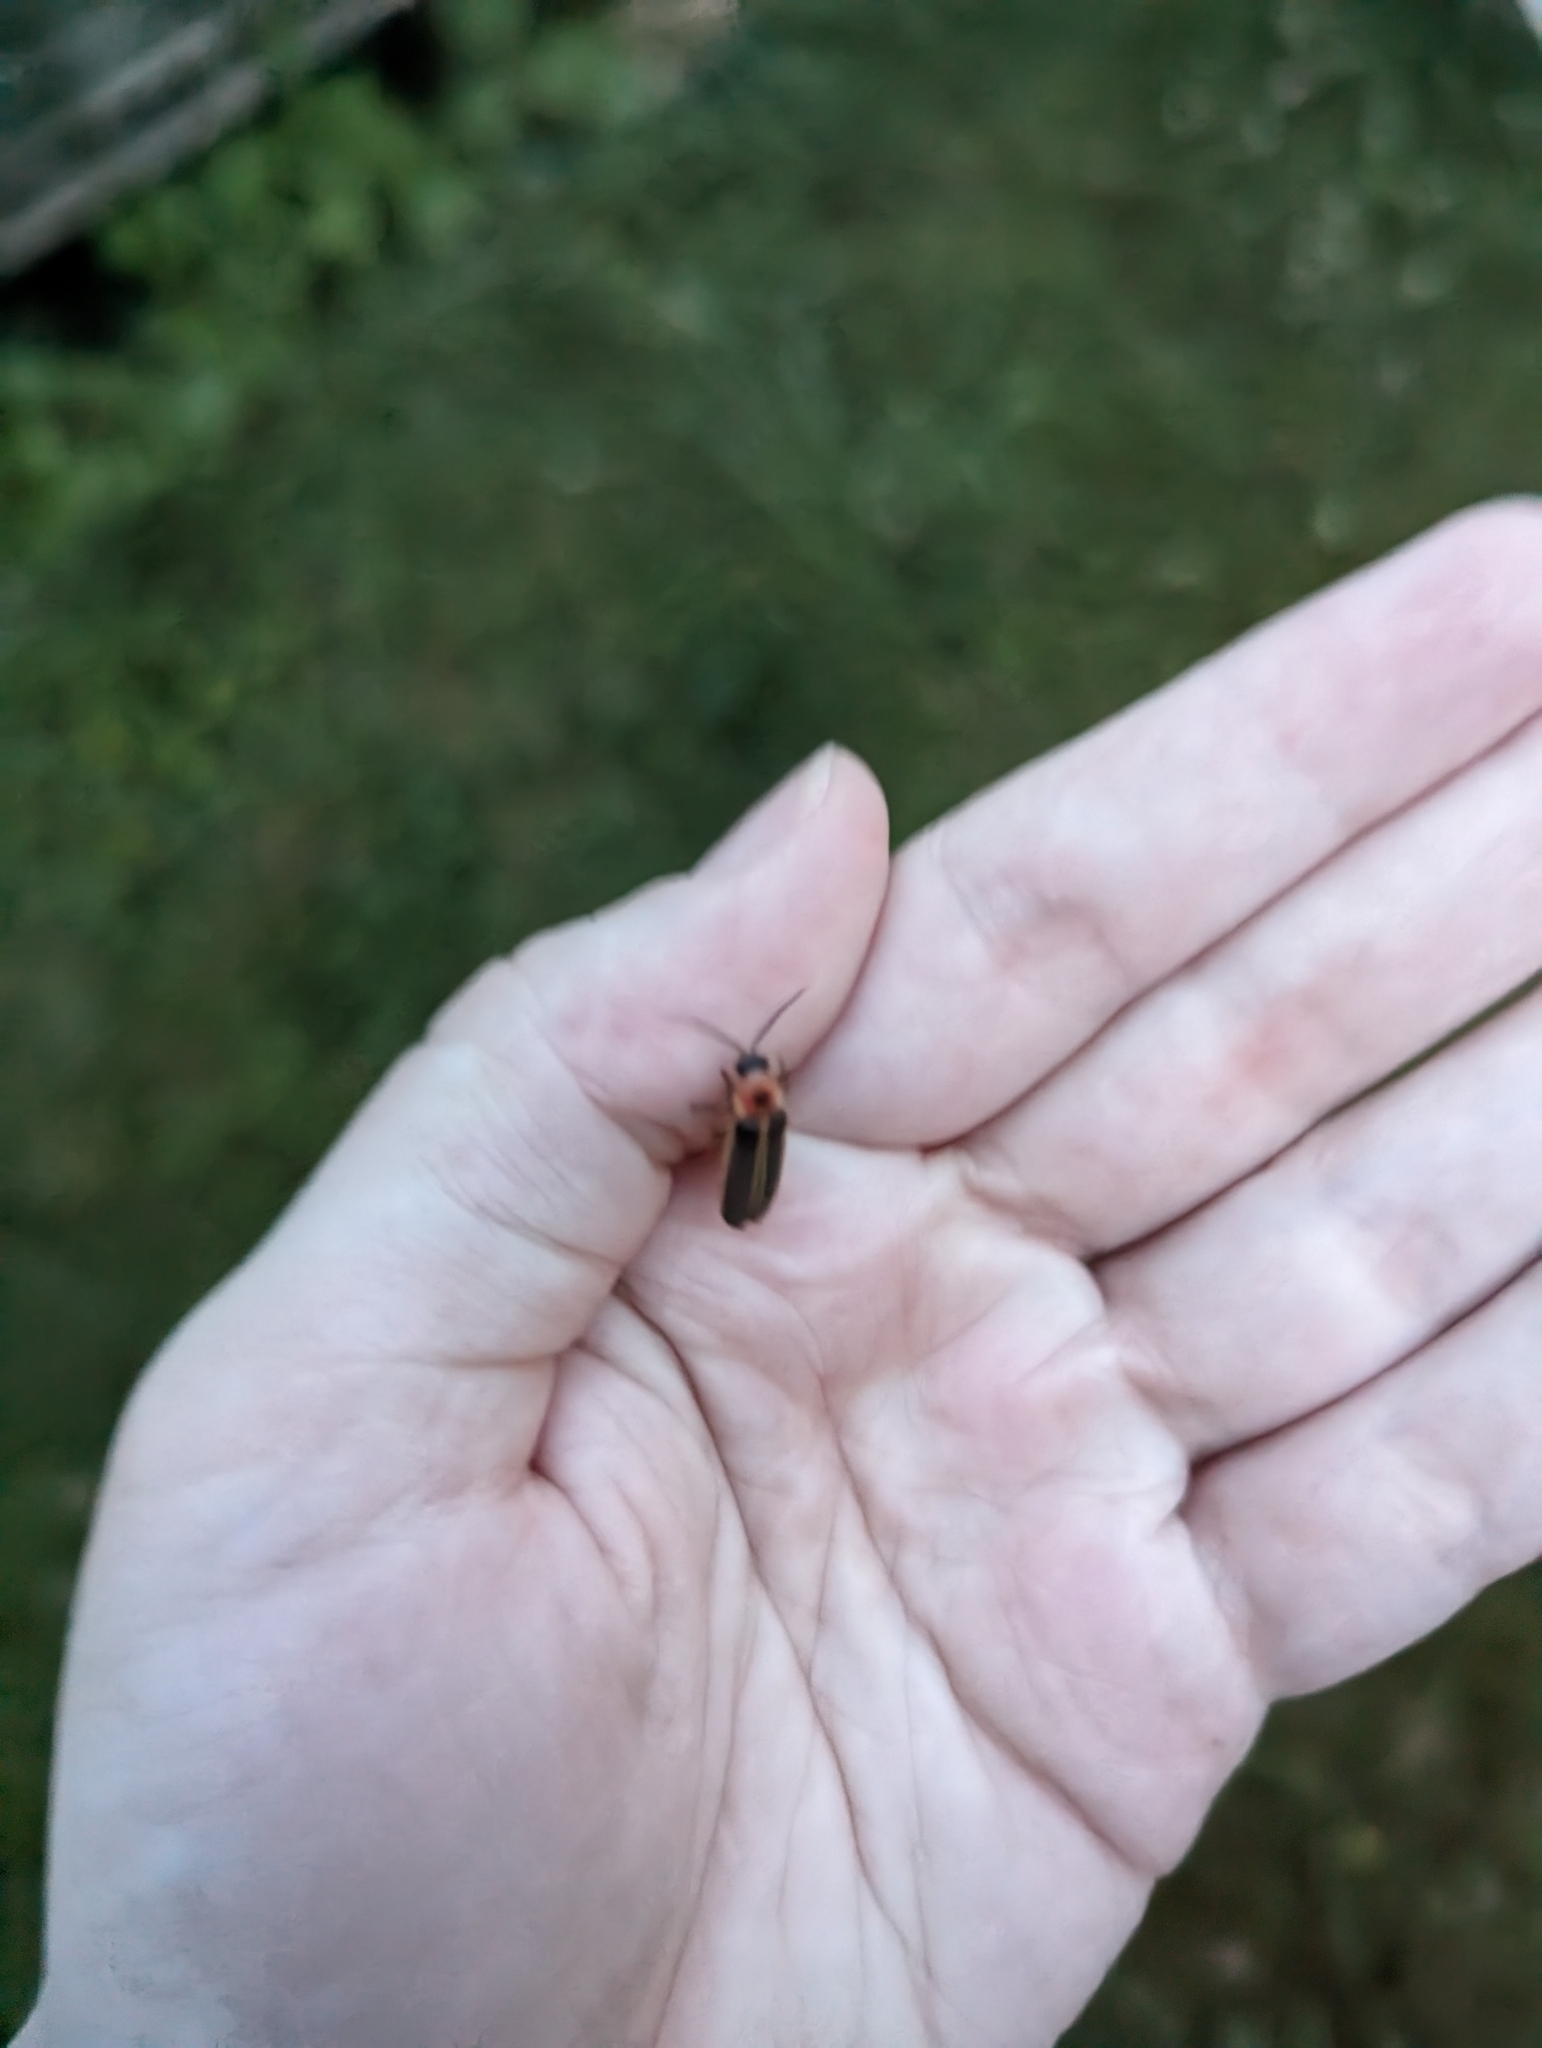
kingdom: Animalia
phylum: Arthropoda
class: Insecta
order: Coleoptera
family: Lampyridae
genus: Photinus
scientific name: Photinus pyralis
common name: Big dipper firefly
